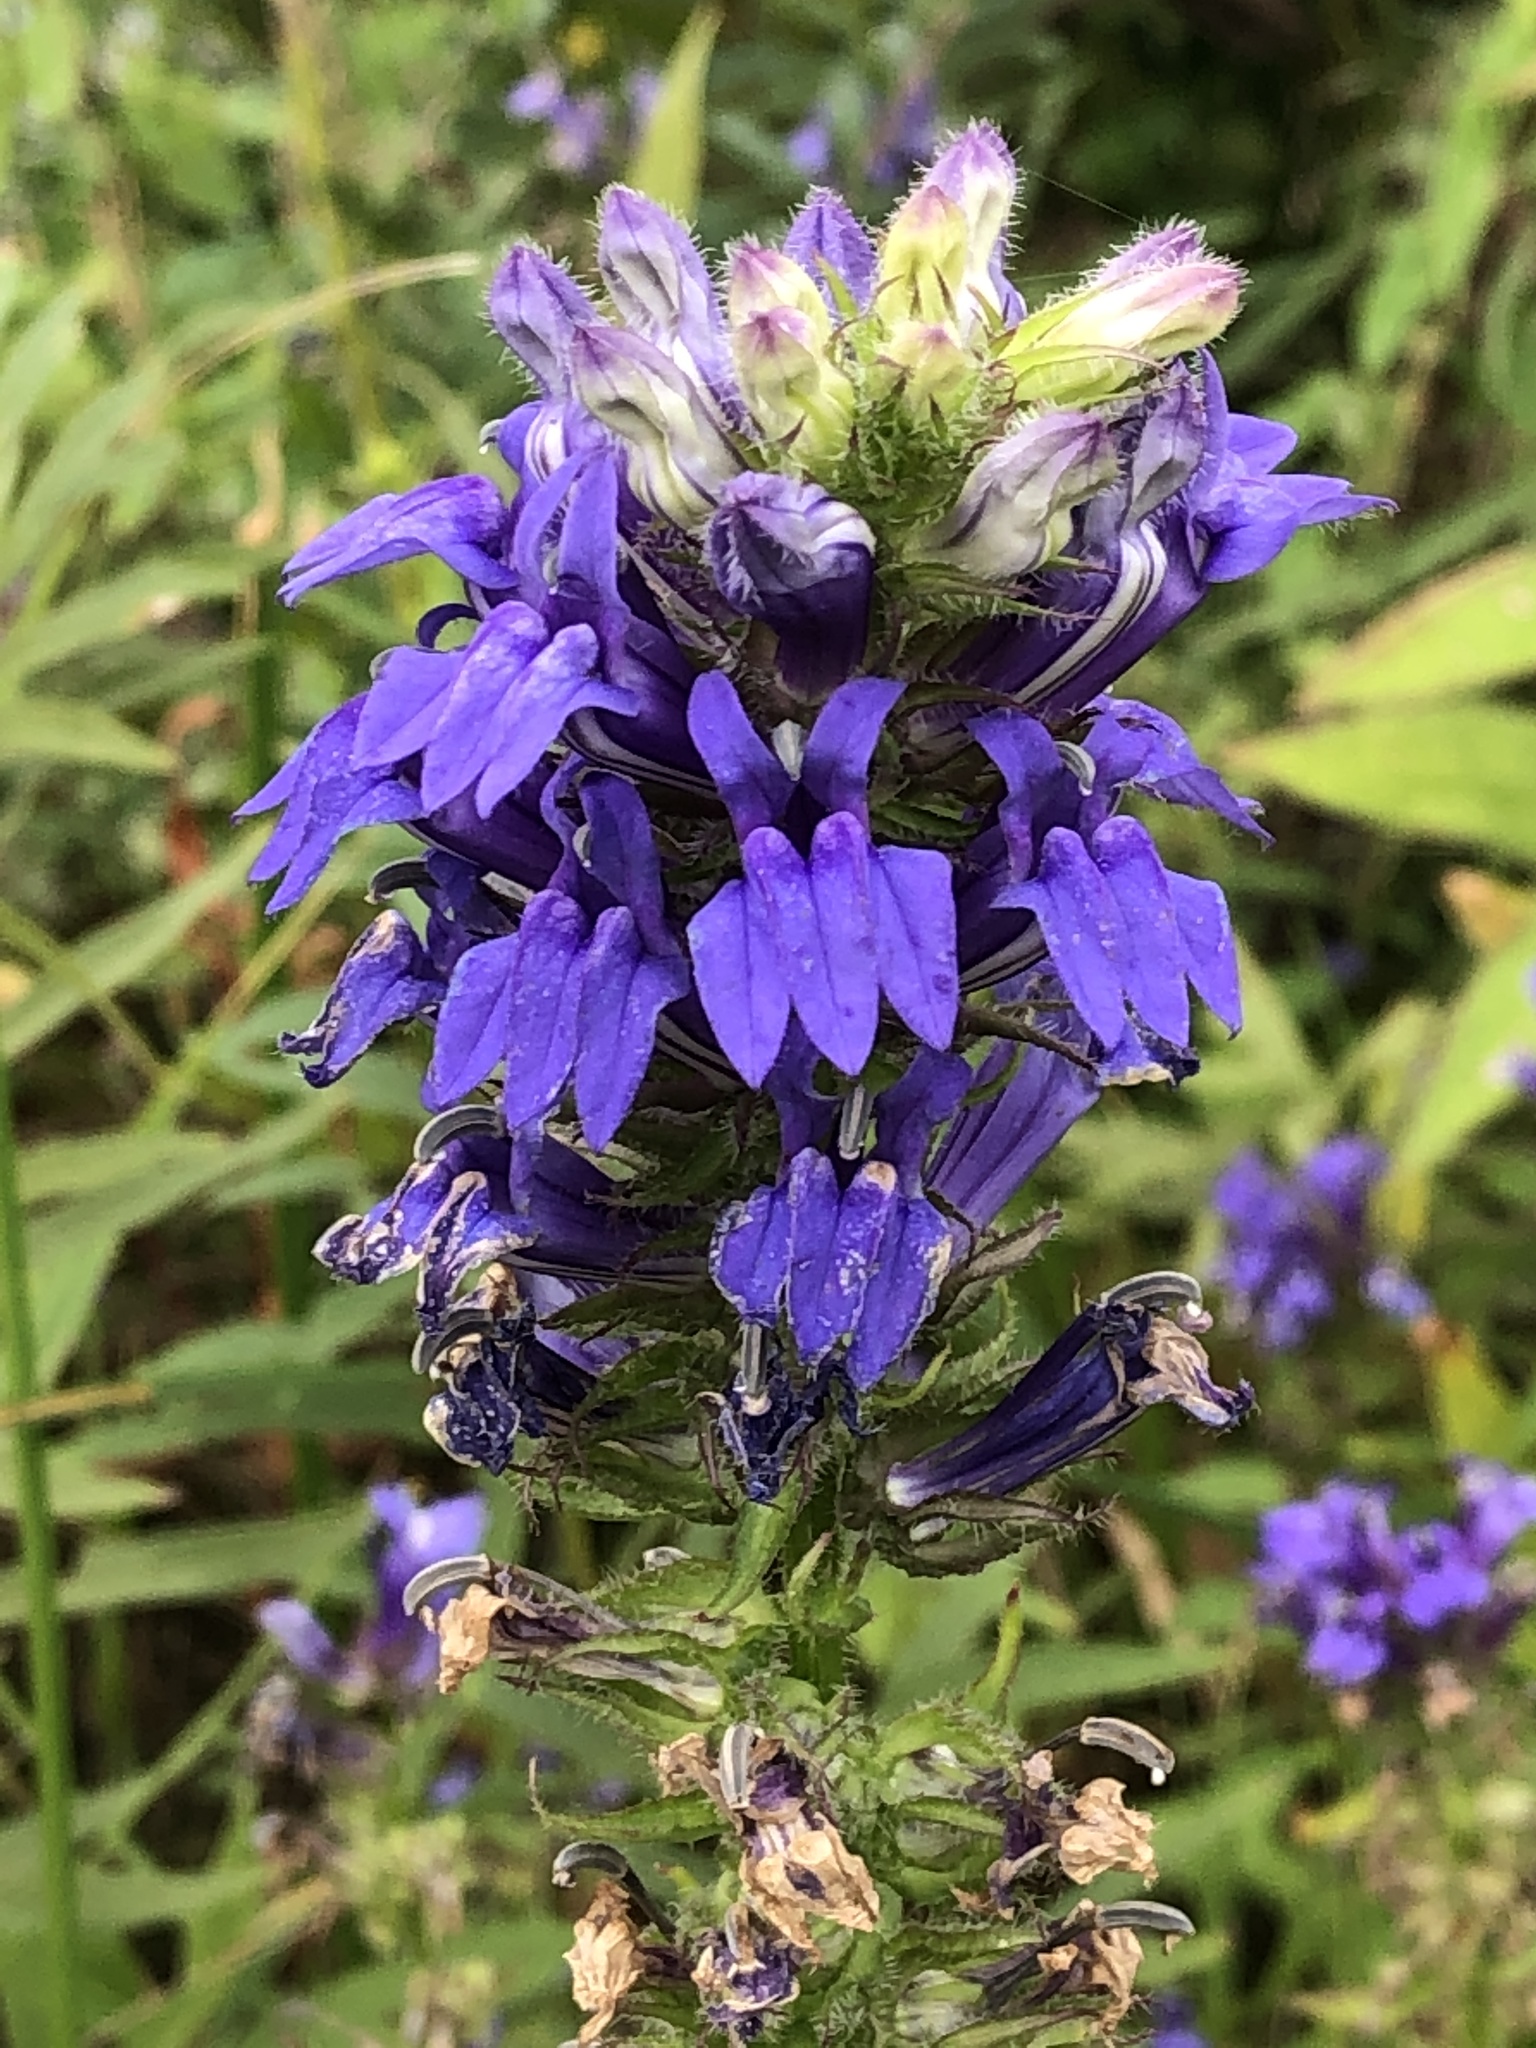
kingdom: Plantae
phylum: Tracheophyta
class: Magnoliopsida
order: Asterales
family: Campanulaceae
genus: Lobelia
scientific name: Lobelia siphilitica
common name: Great lobelia
